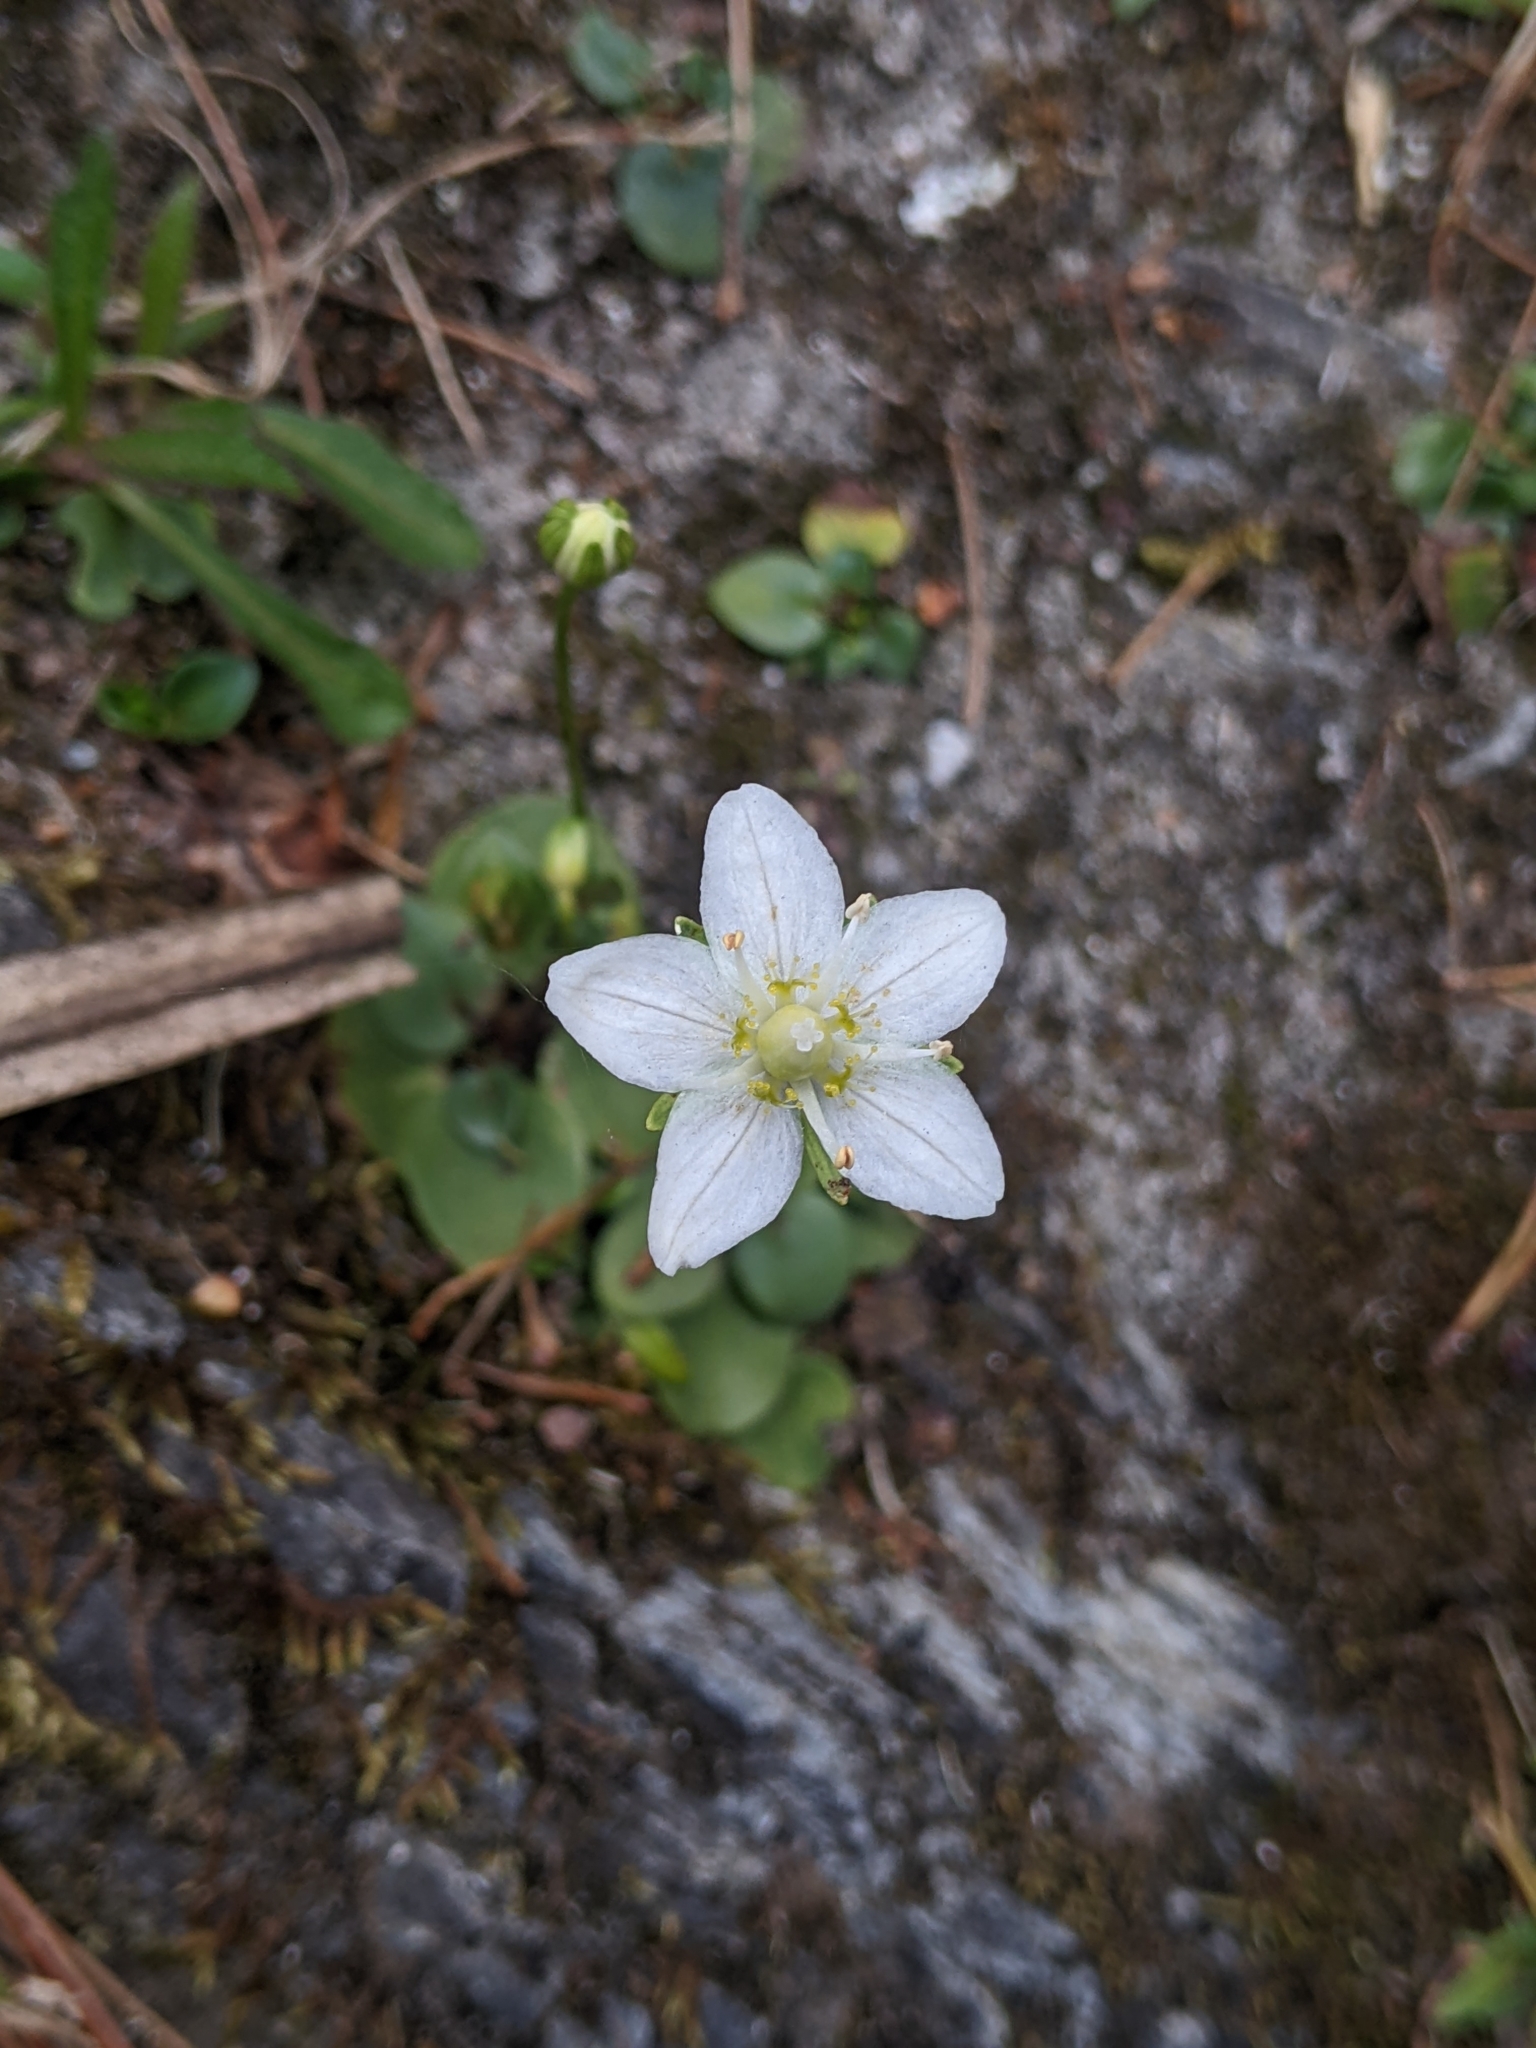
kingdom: Plantae
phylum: Tracheophyta
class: Magnoliopsida
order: Celastrales
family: Parnassiaceae
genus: Parnassia
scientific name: Parnassia palustris
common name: Grass-of-parnassus
